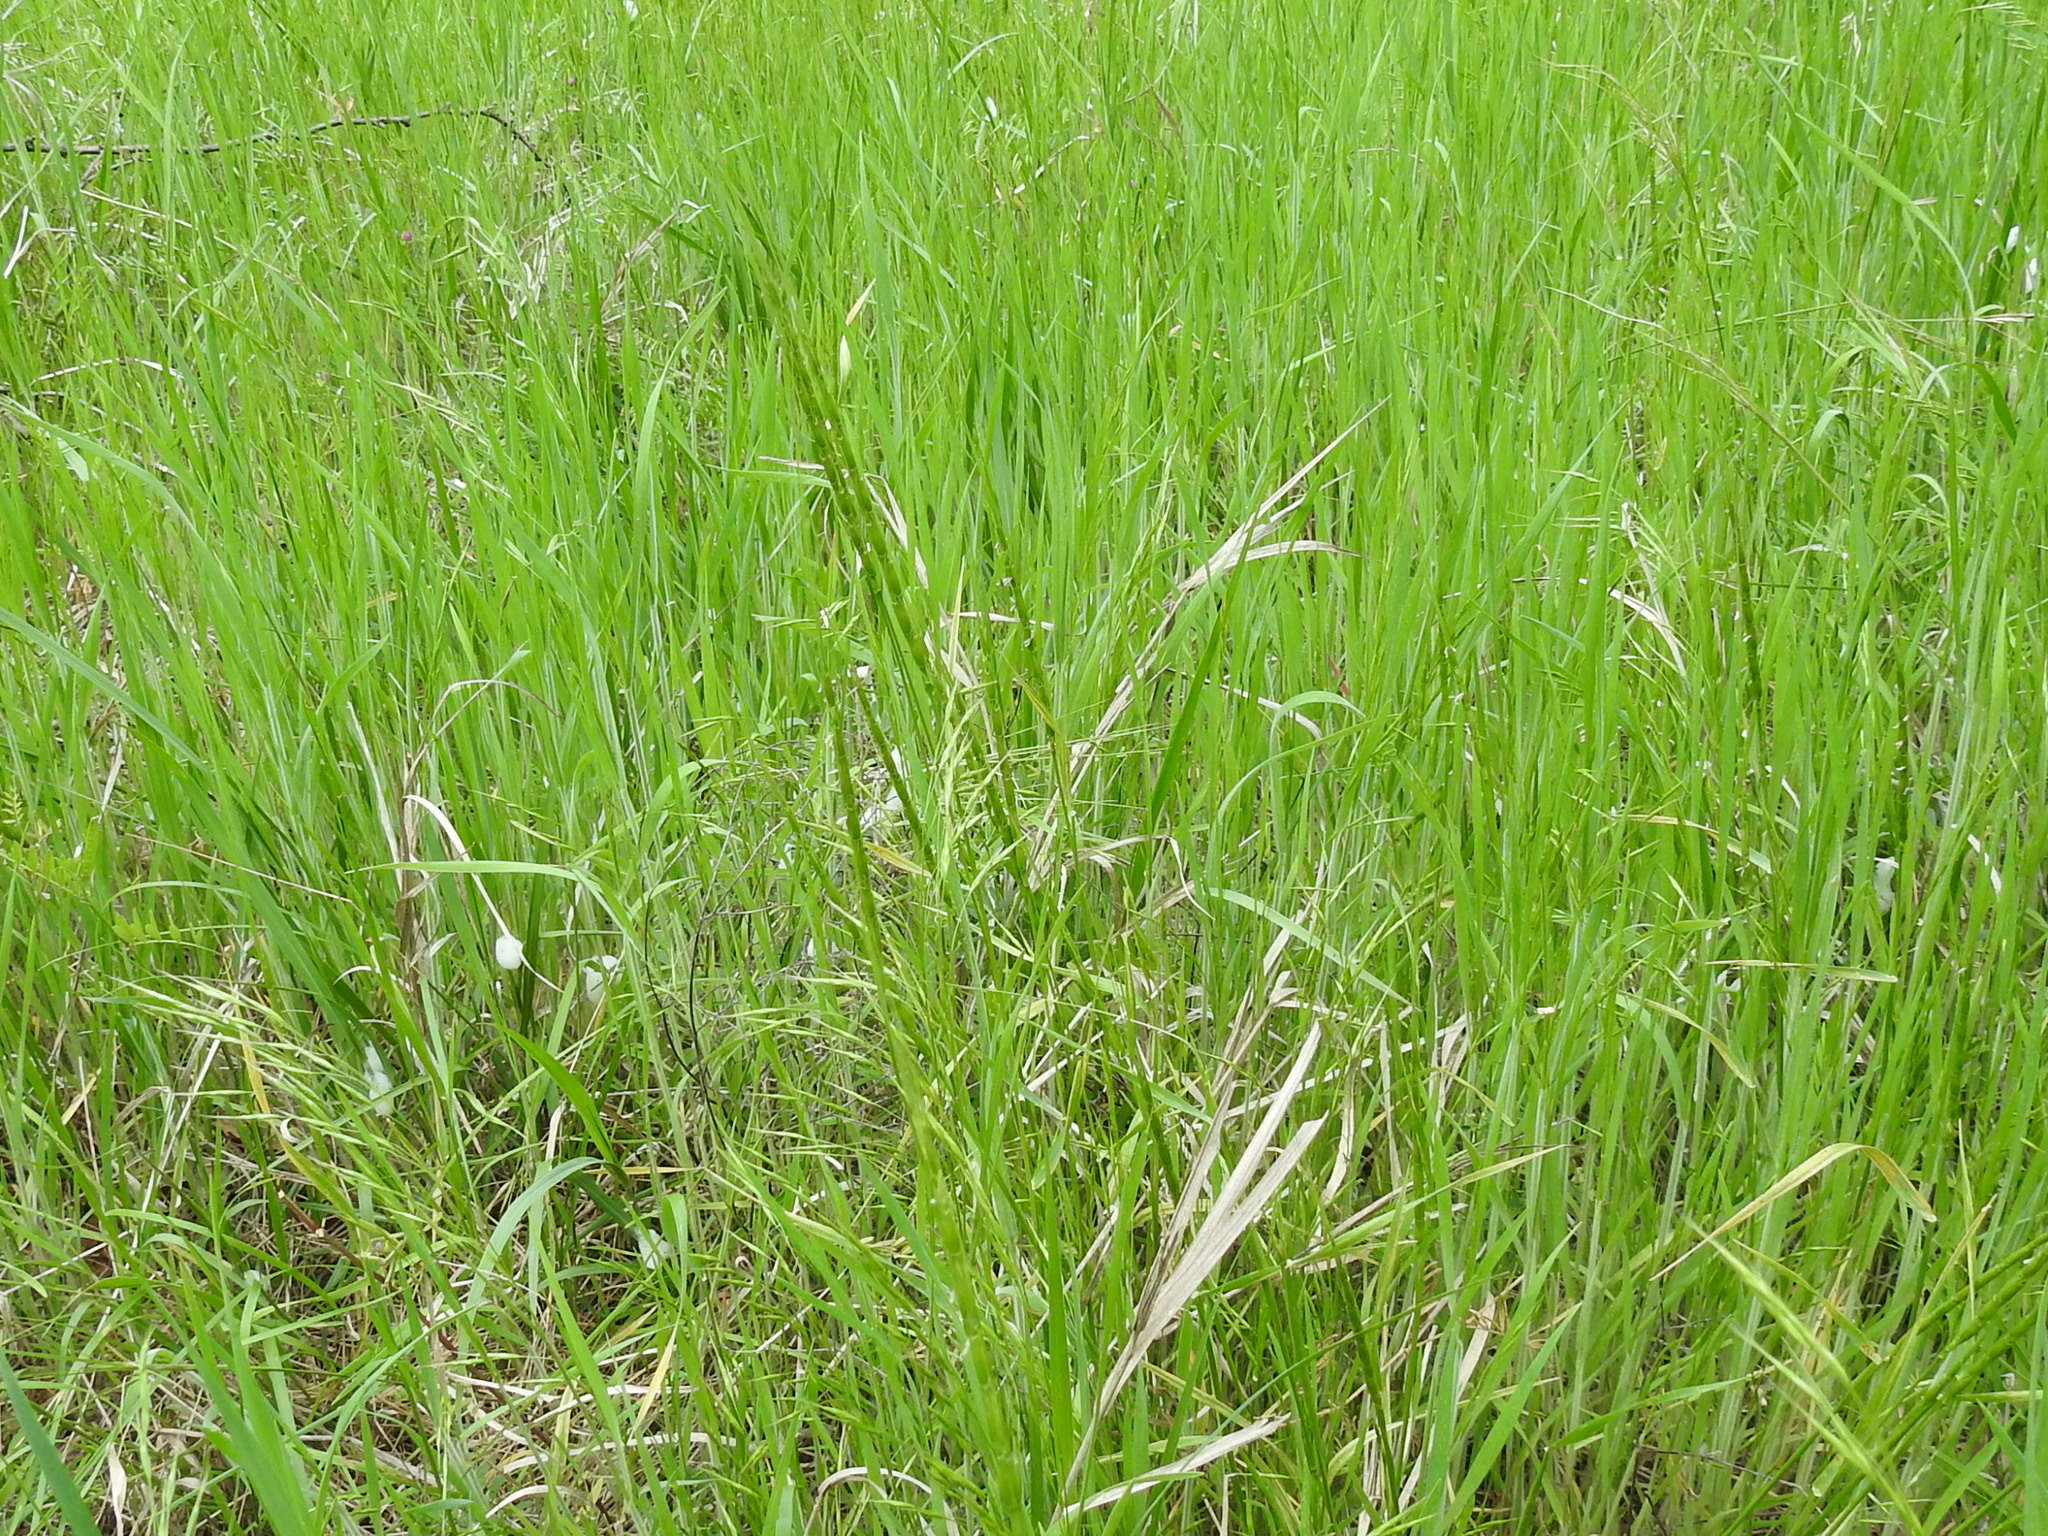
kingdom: Plantae
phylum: Tracheophyta
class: Liliopsida
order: Poales
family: Poaceae
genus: Aegilops
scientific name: Aegilops cylindrica
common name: Jointed goatgrass
